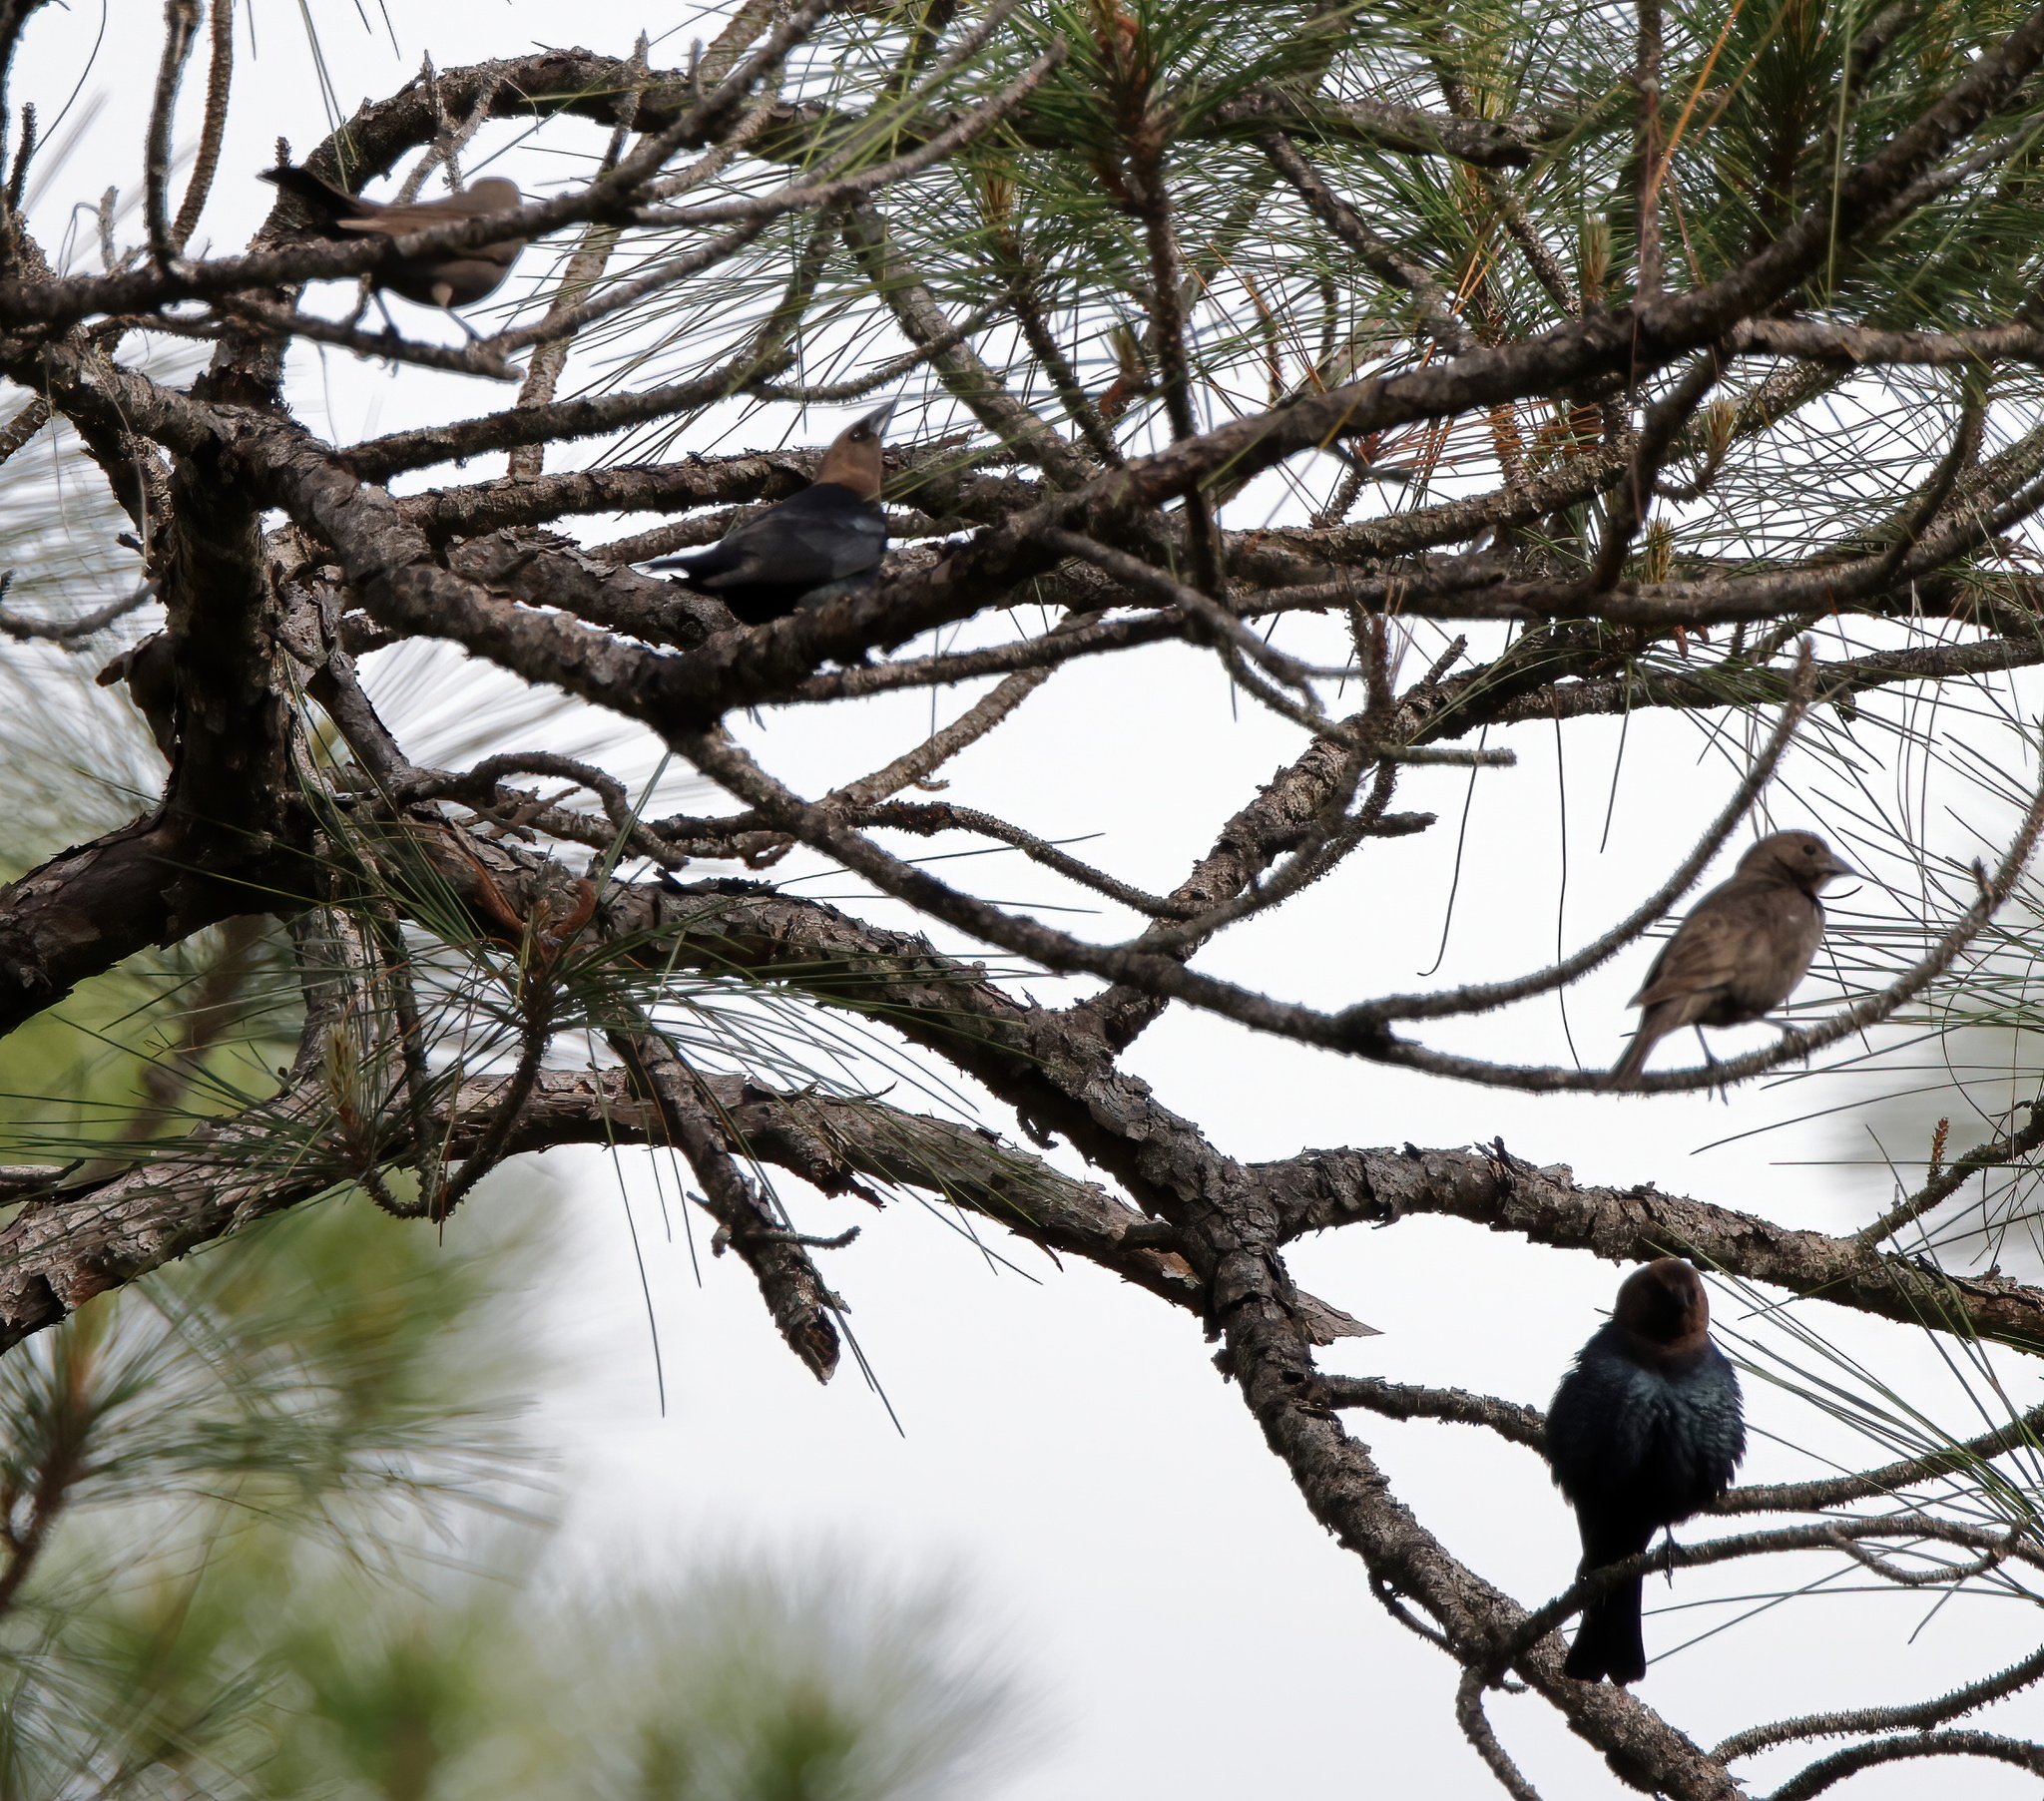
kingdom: Animalia
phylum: Chordata
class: Aves
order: Passeriformes
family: Icteridae
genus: Molothrus
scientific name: Molothrus ater
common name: Brown-headed cowbird
